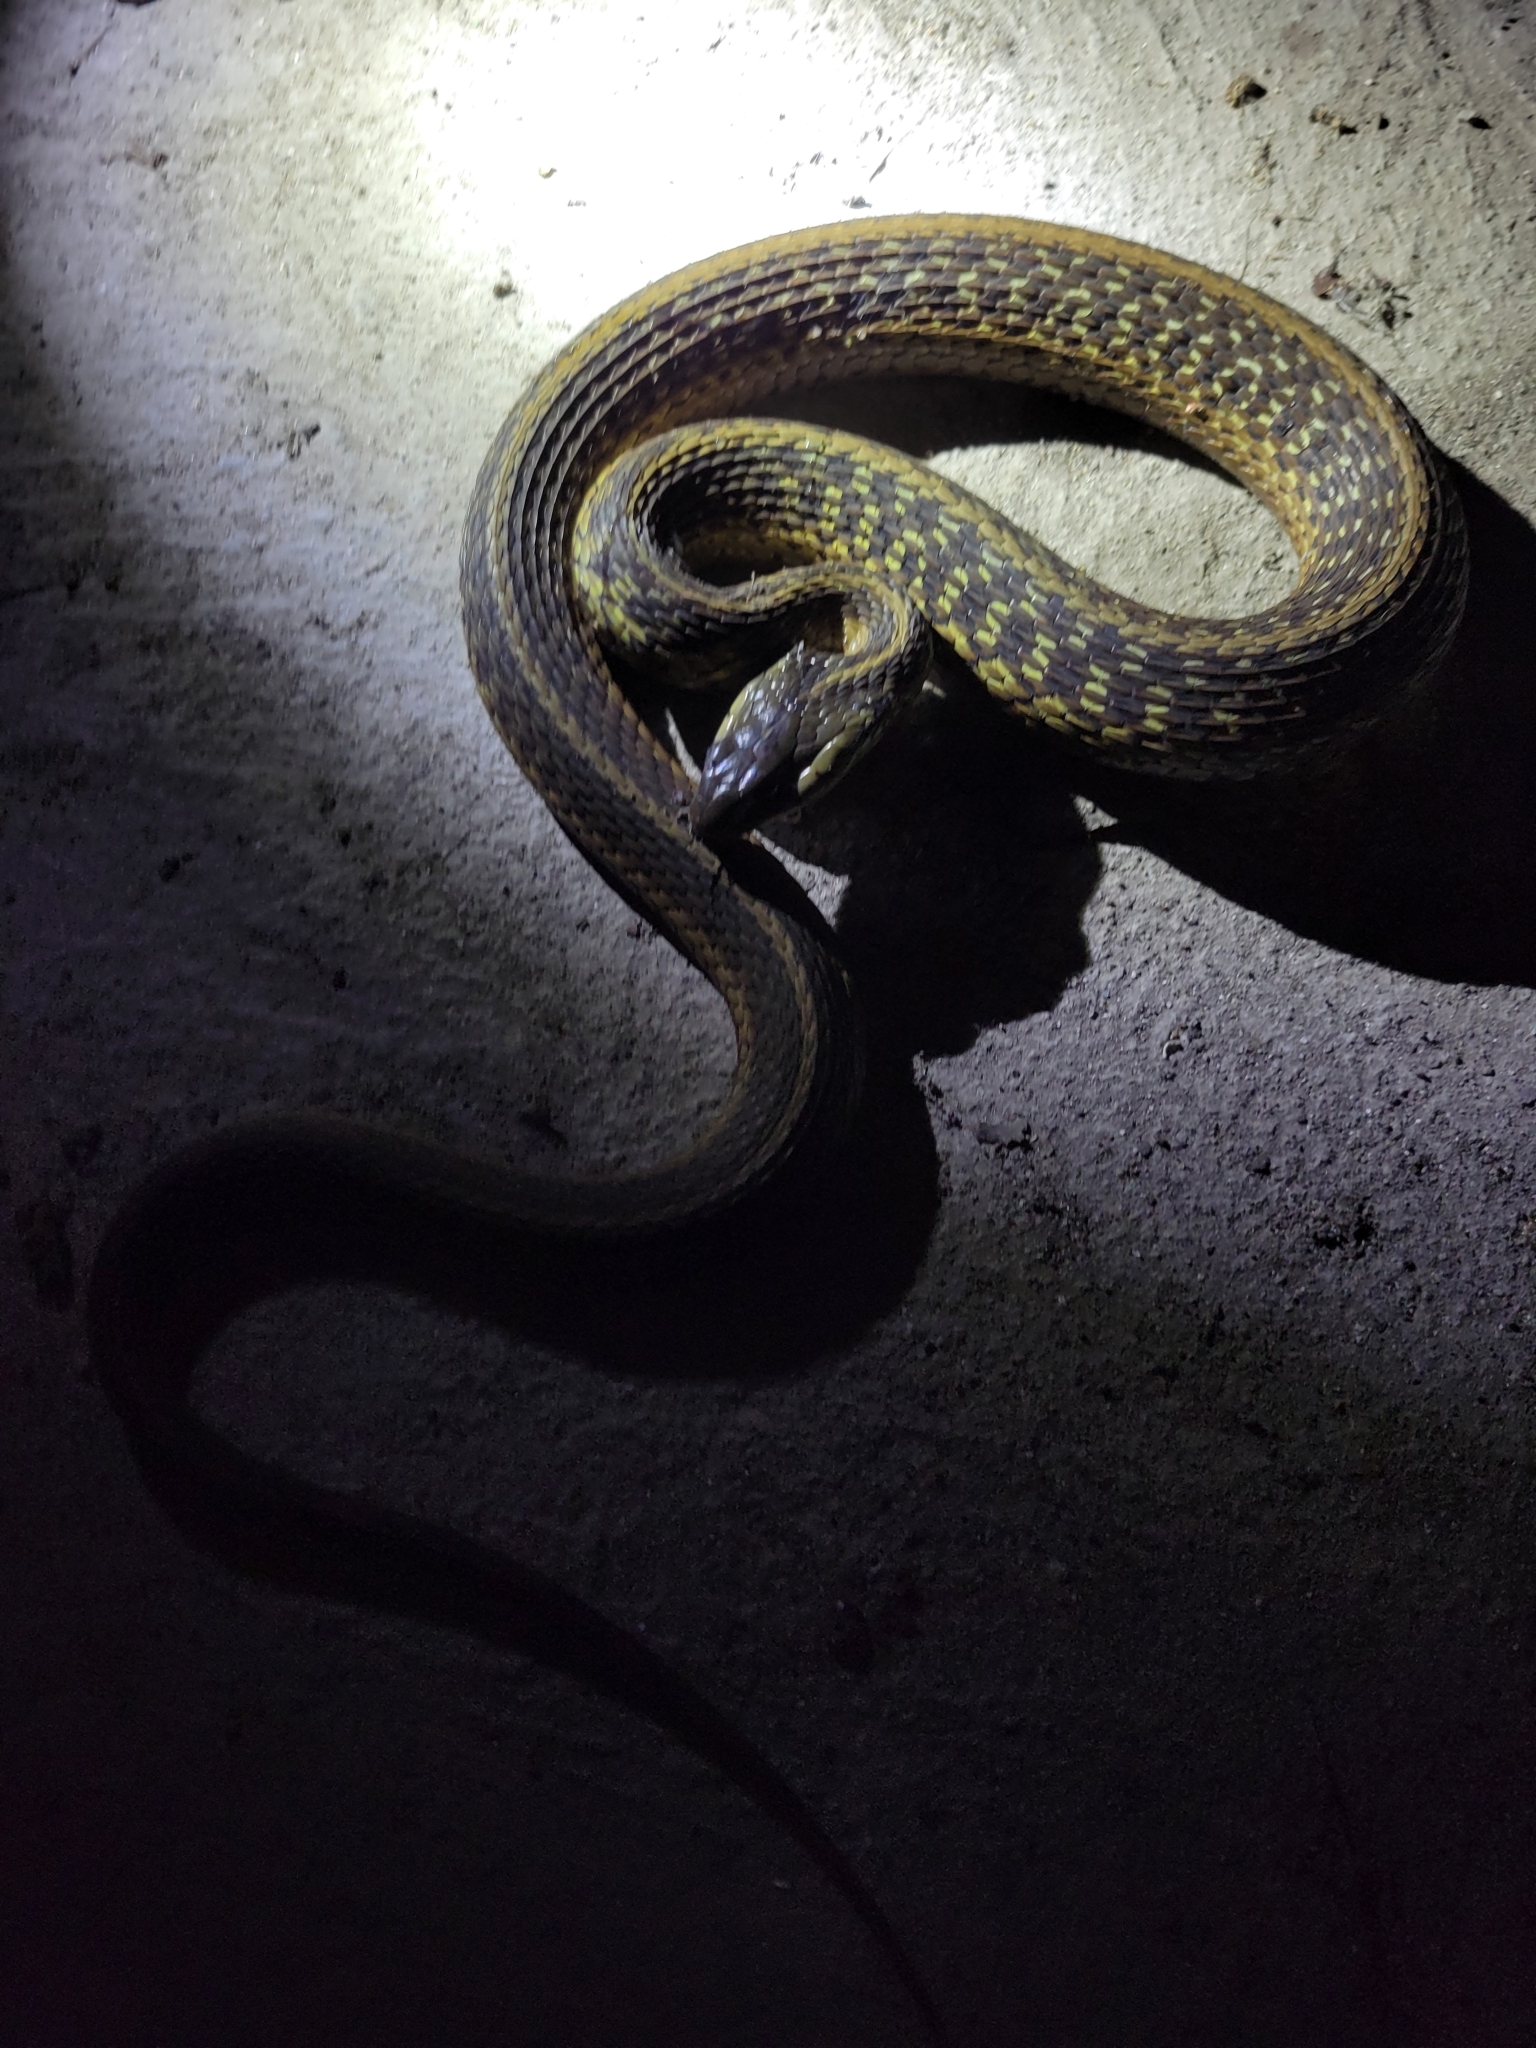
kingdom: Animalia
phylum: Chordata
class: Squamata
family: Colubridae
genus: Thamnophis
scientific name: Thamnophis sirtalis
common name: Common garter snake
